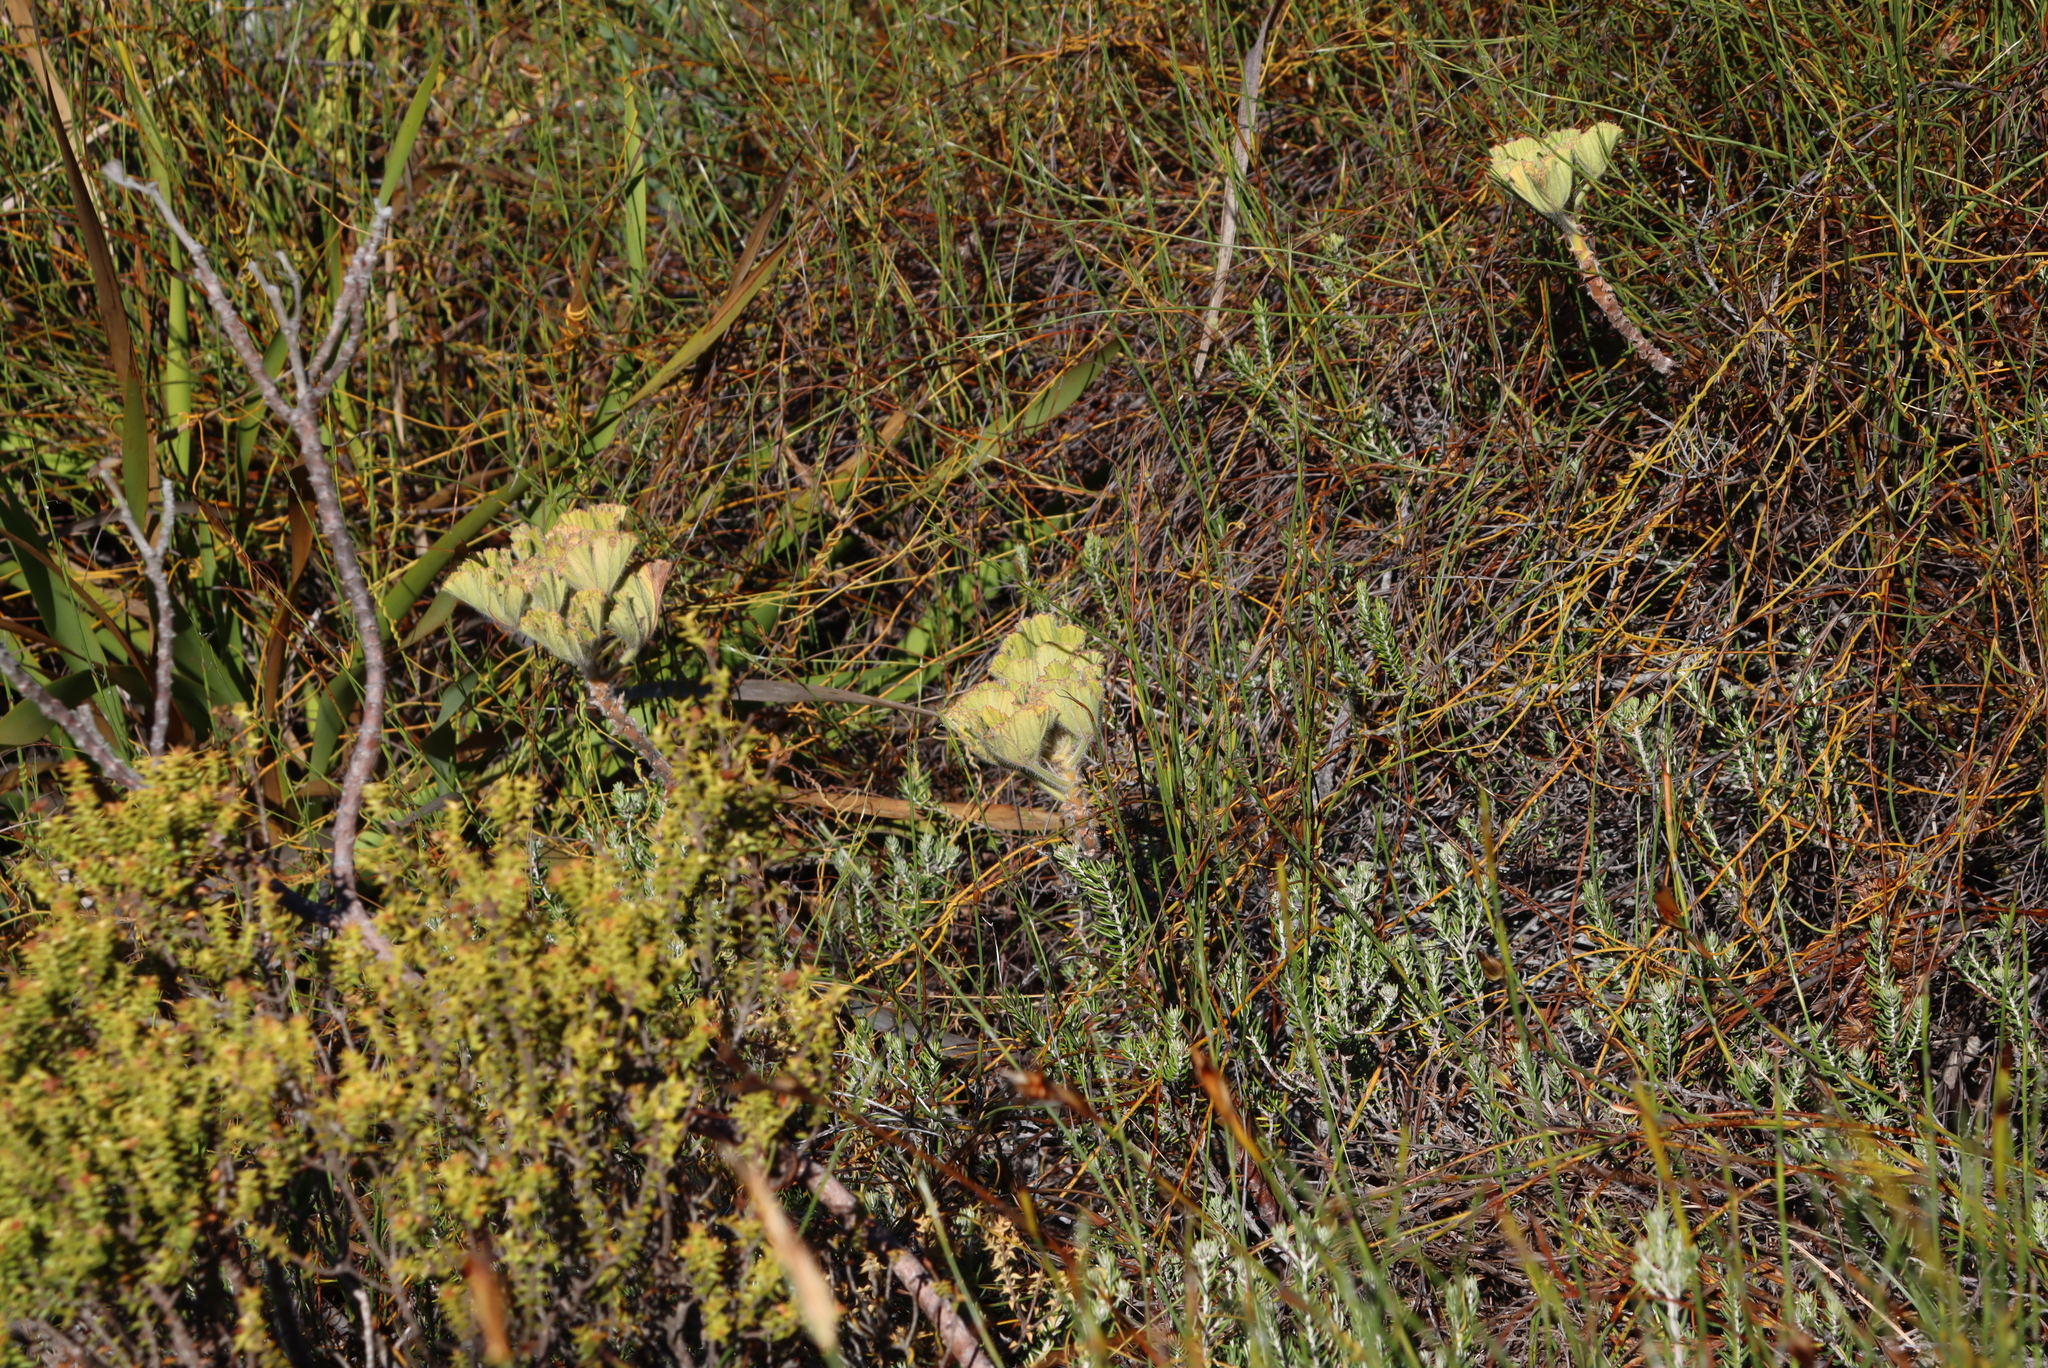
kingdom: Plantae
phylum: Tracheophyta
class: Magnoliopsida
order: Geraniales
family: Geraniaceae
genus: Pelargonium
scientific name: Pelargonium cucullatum
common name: Tree pelargonium
